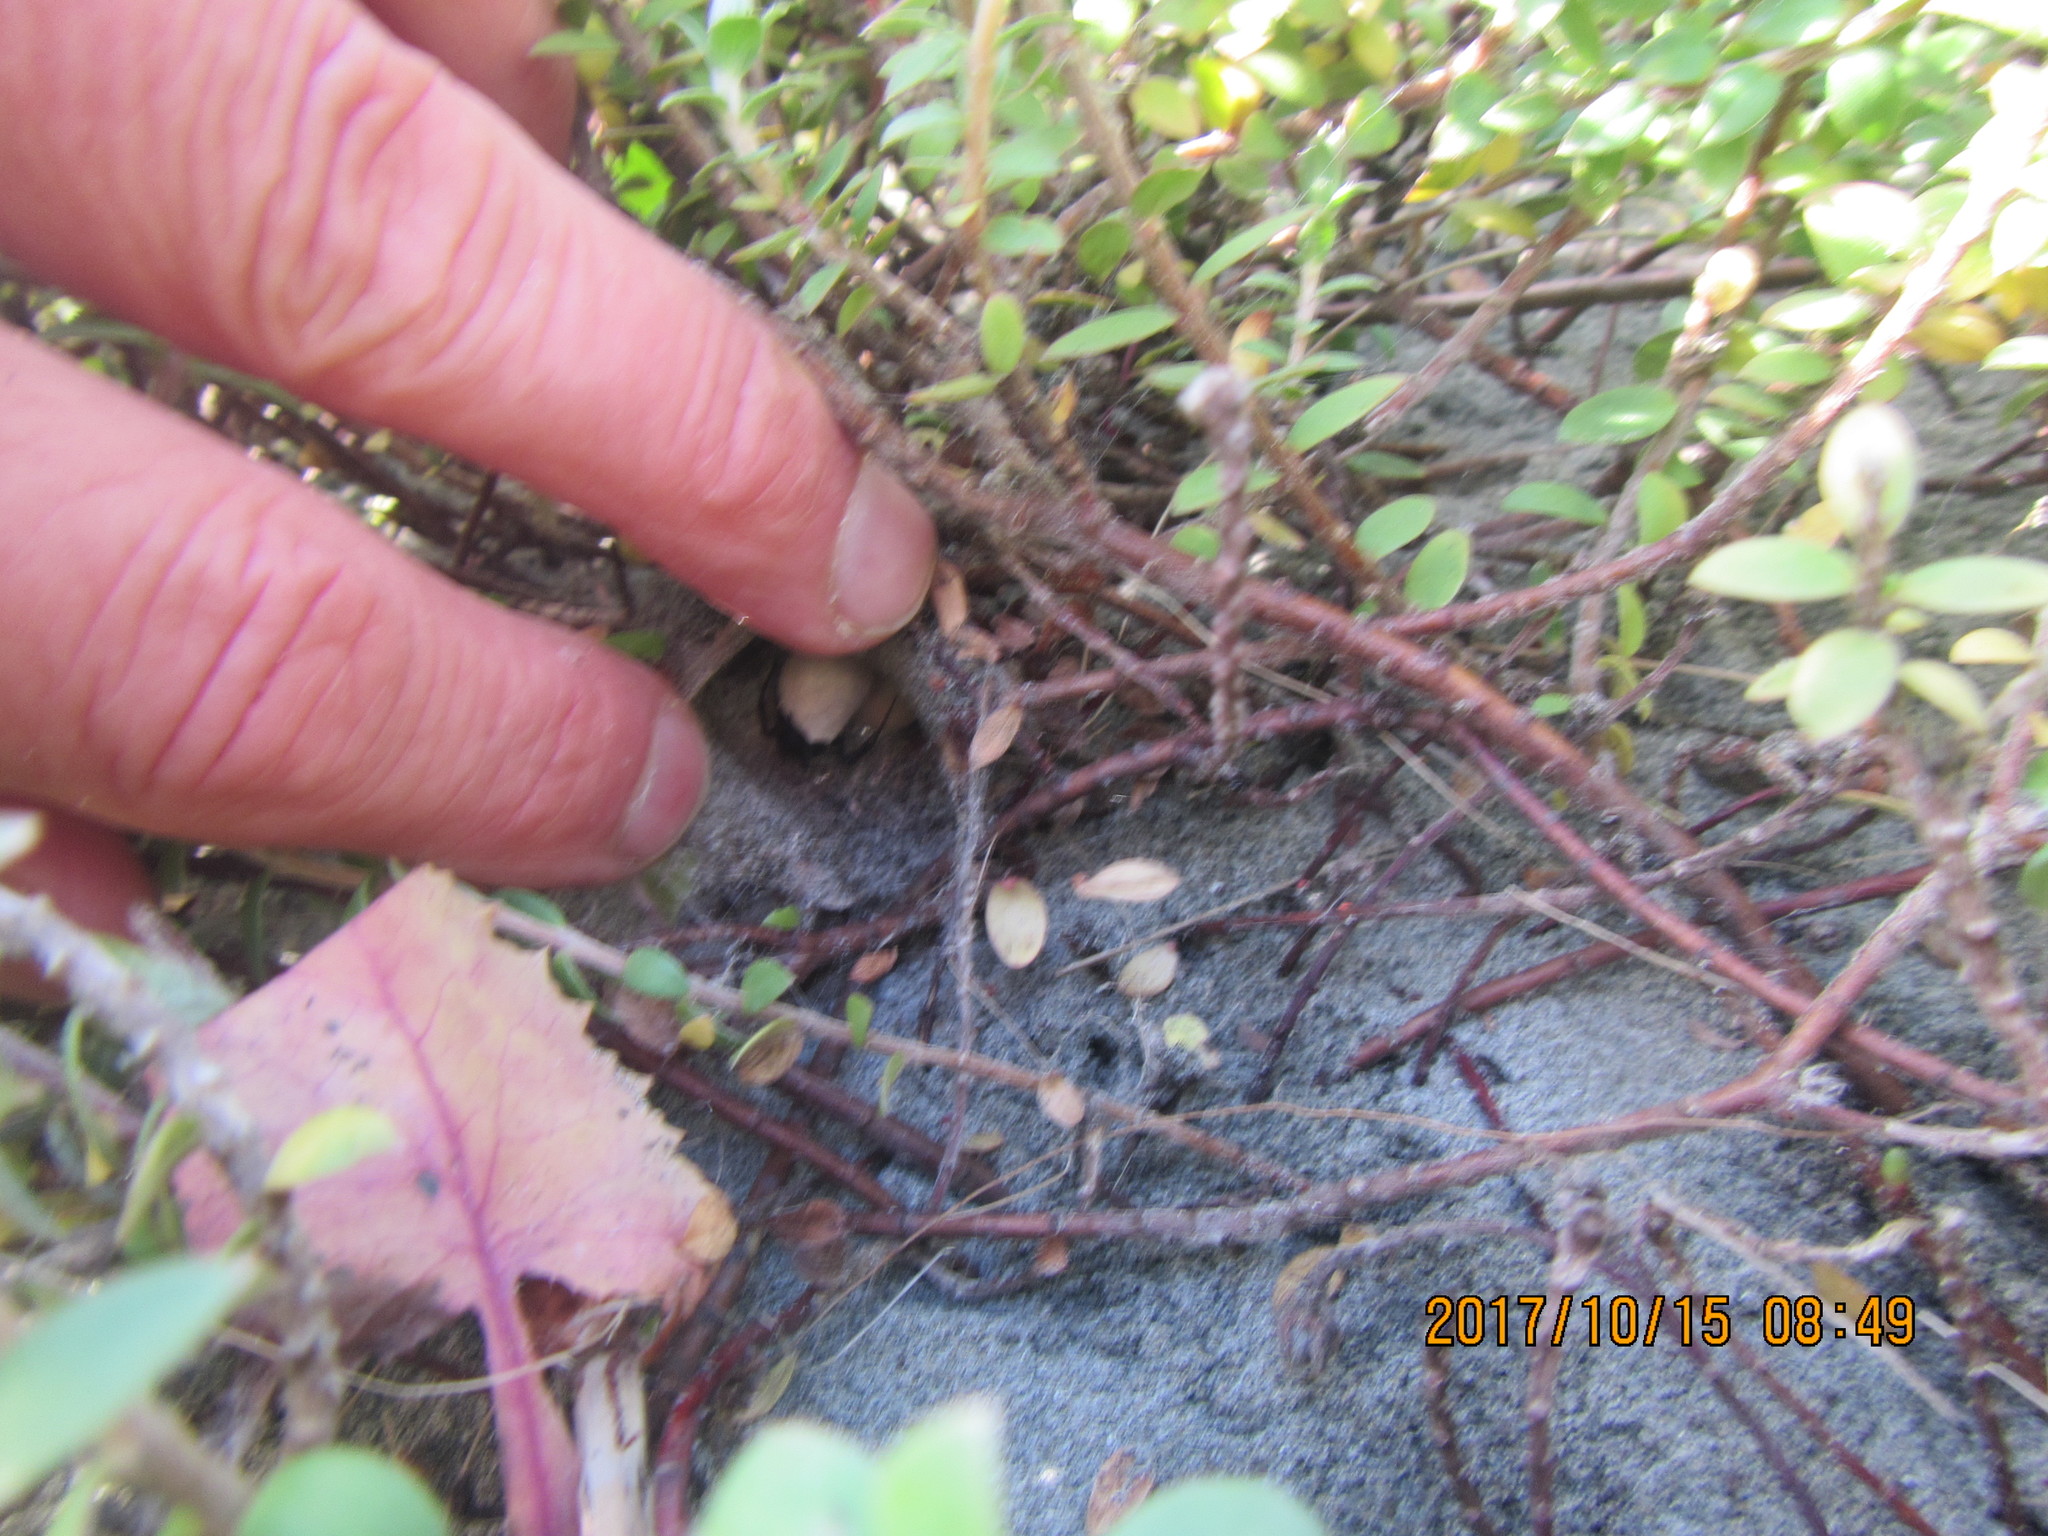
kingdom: Plantae
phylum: Tracheophyta
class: Magnoliopsida
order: Malvales
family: Thymelaeaceae
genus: Pimelea
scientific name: Pimelea villosa
